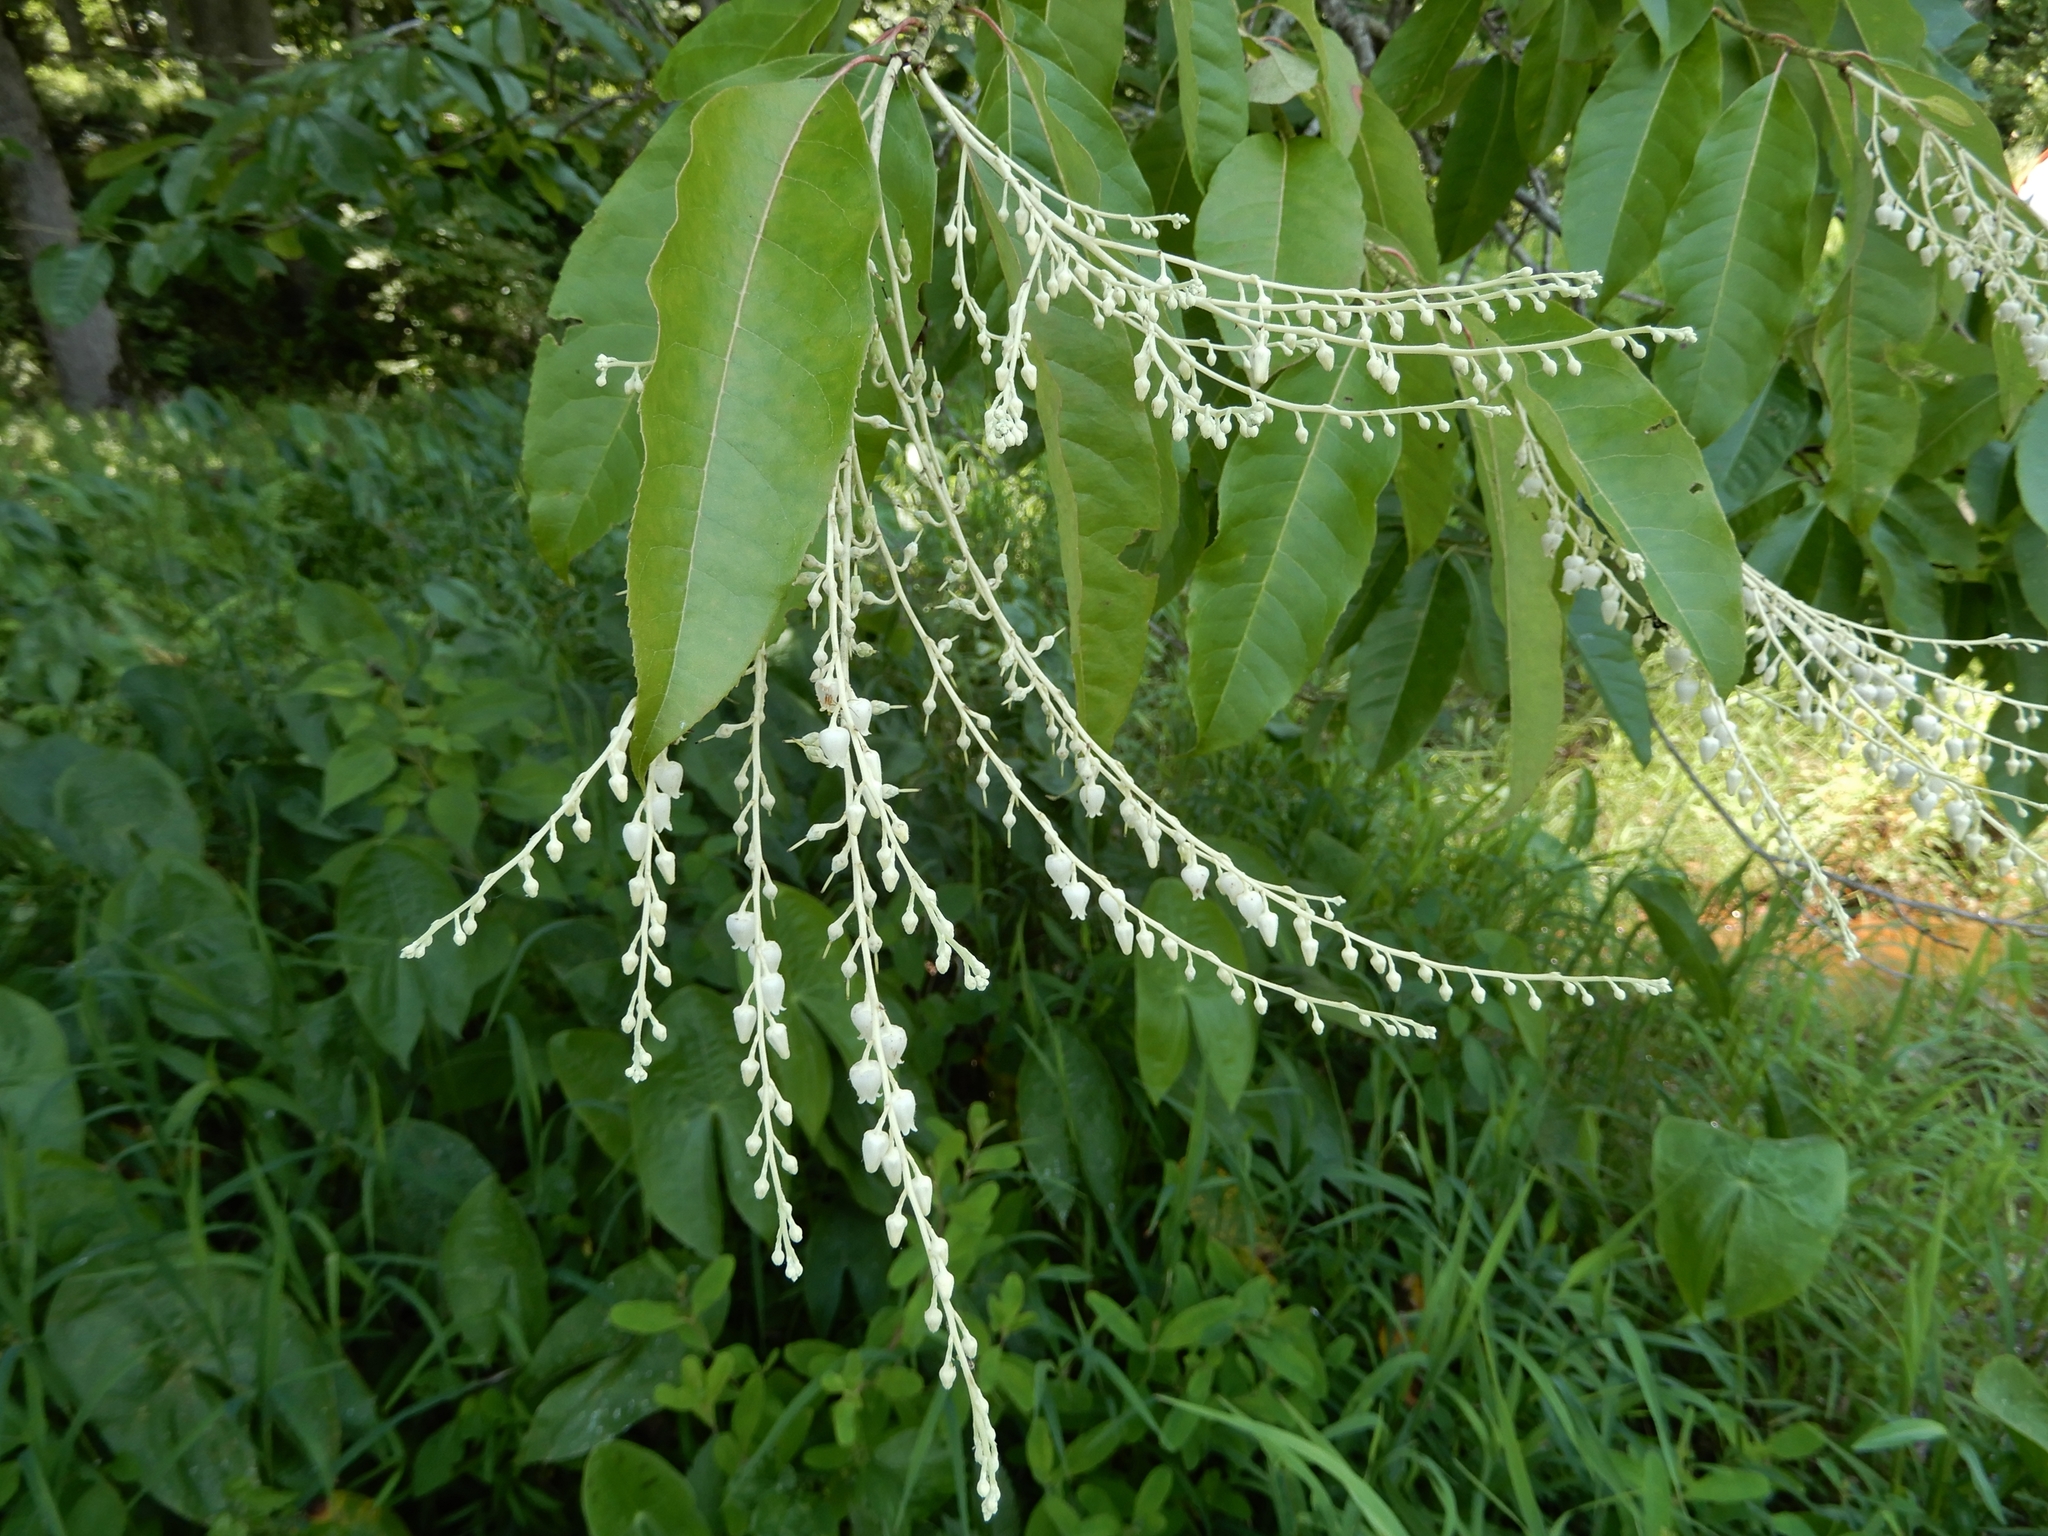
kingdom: Plantae
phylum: Tracheophyta
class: Magnoliopsida
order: Ericales
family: Ericaceae
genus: Oxydendrum
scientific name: Oxydendrum arboreum
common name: Sourwood
